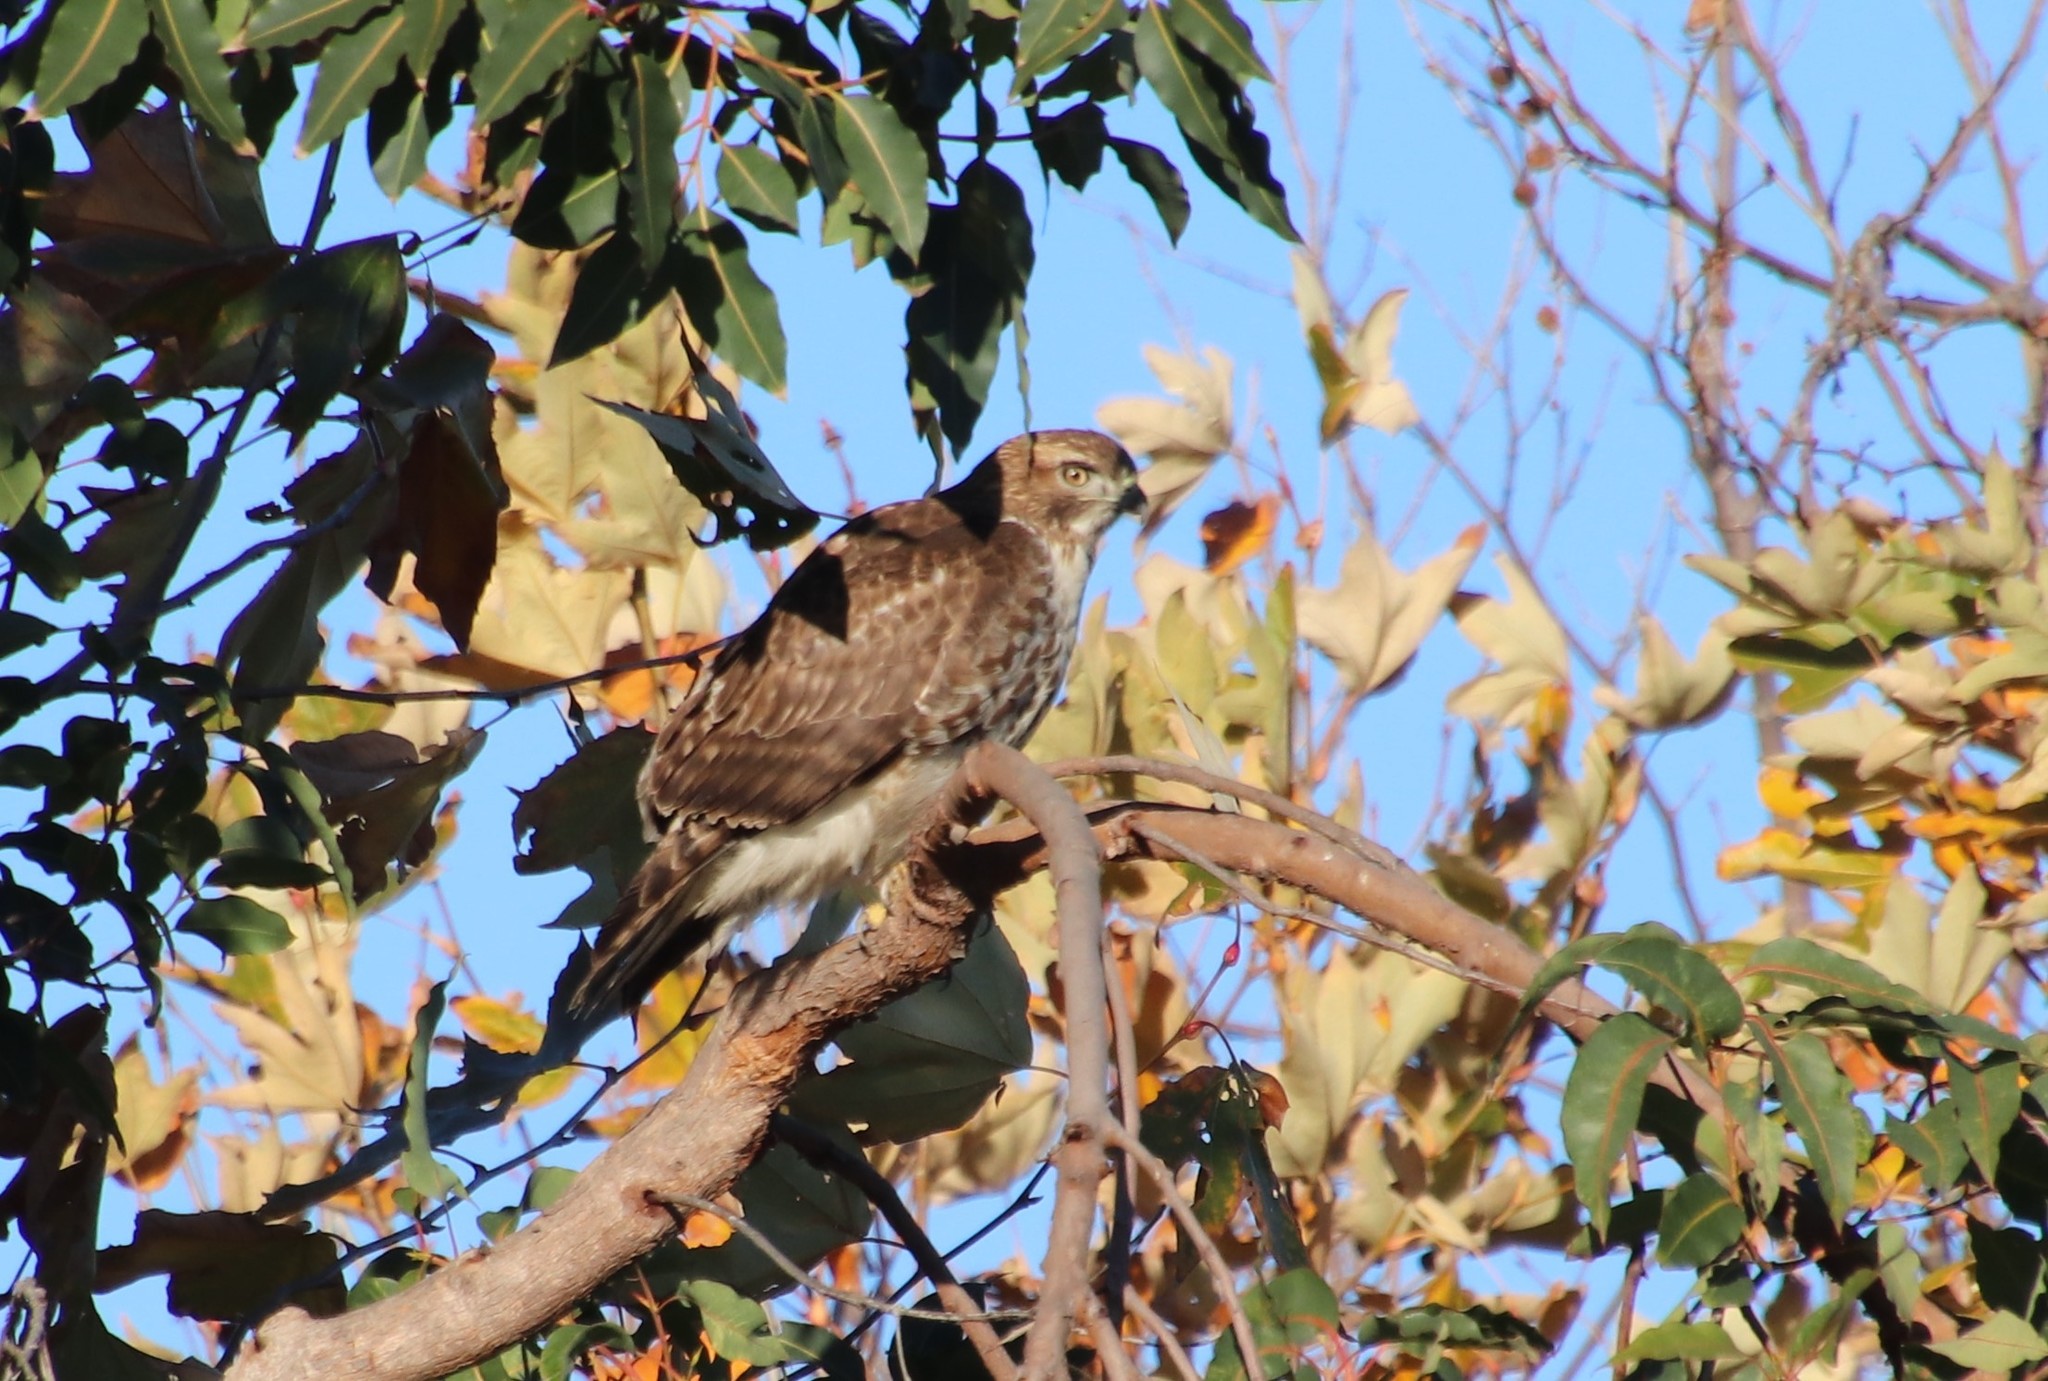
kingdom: Animalia
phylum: Chordata
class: Aves
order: Accipitriformes
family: Accipitridae
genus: Buteo
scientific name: Buteo jamaicensis
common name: Red-tailed hawk
